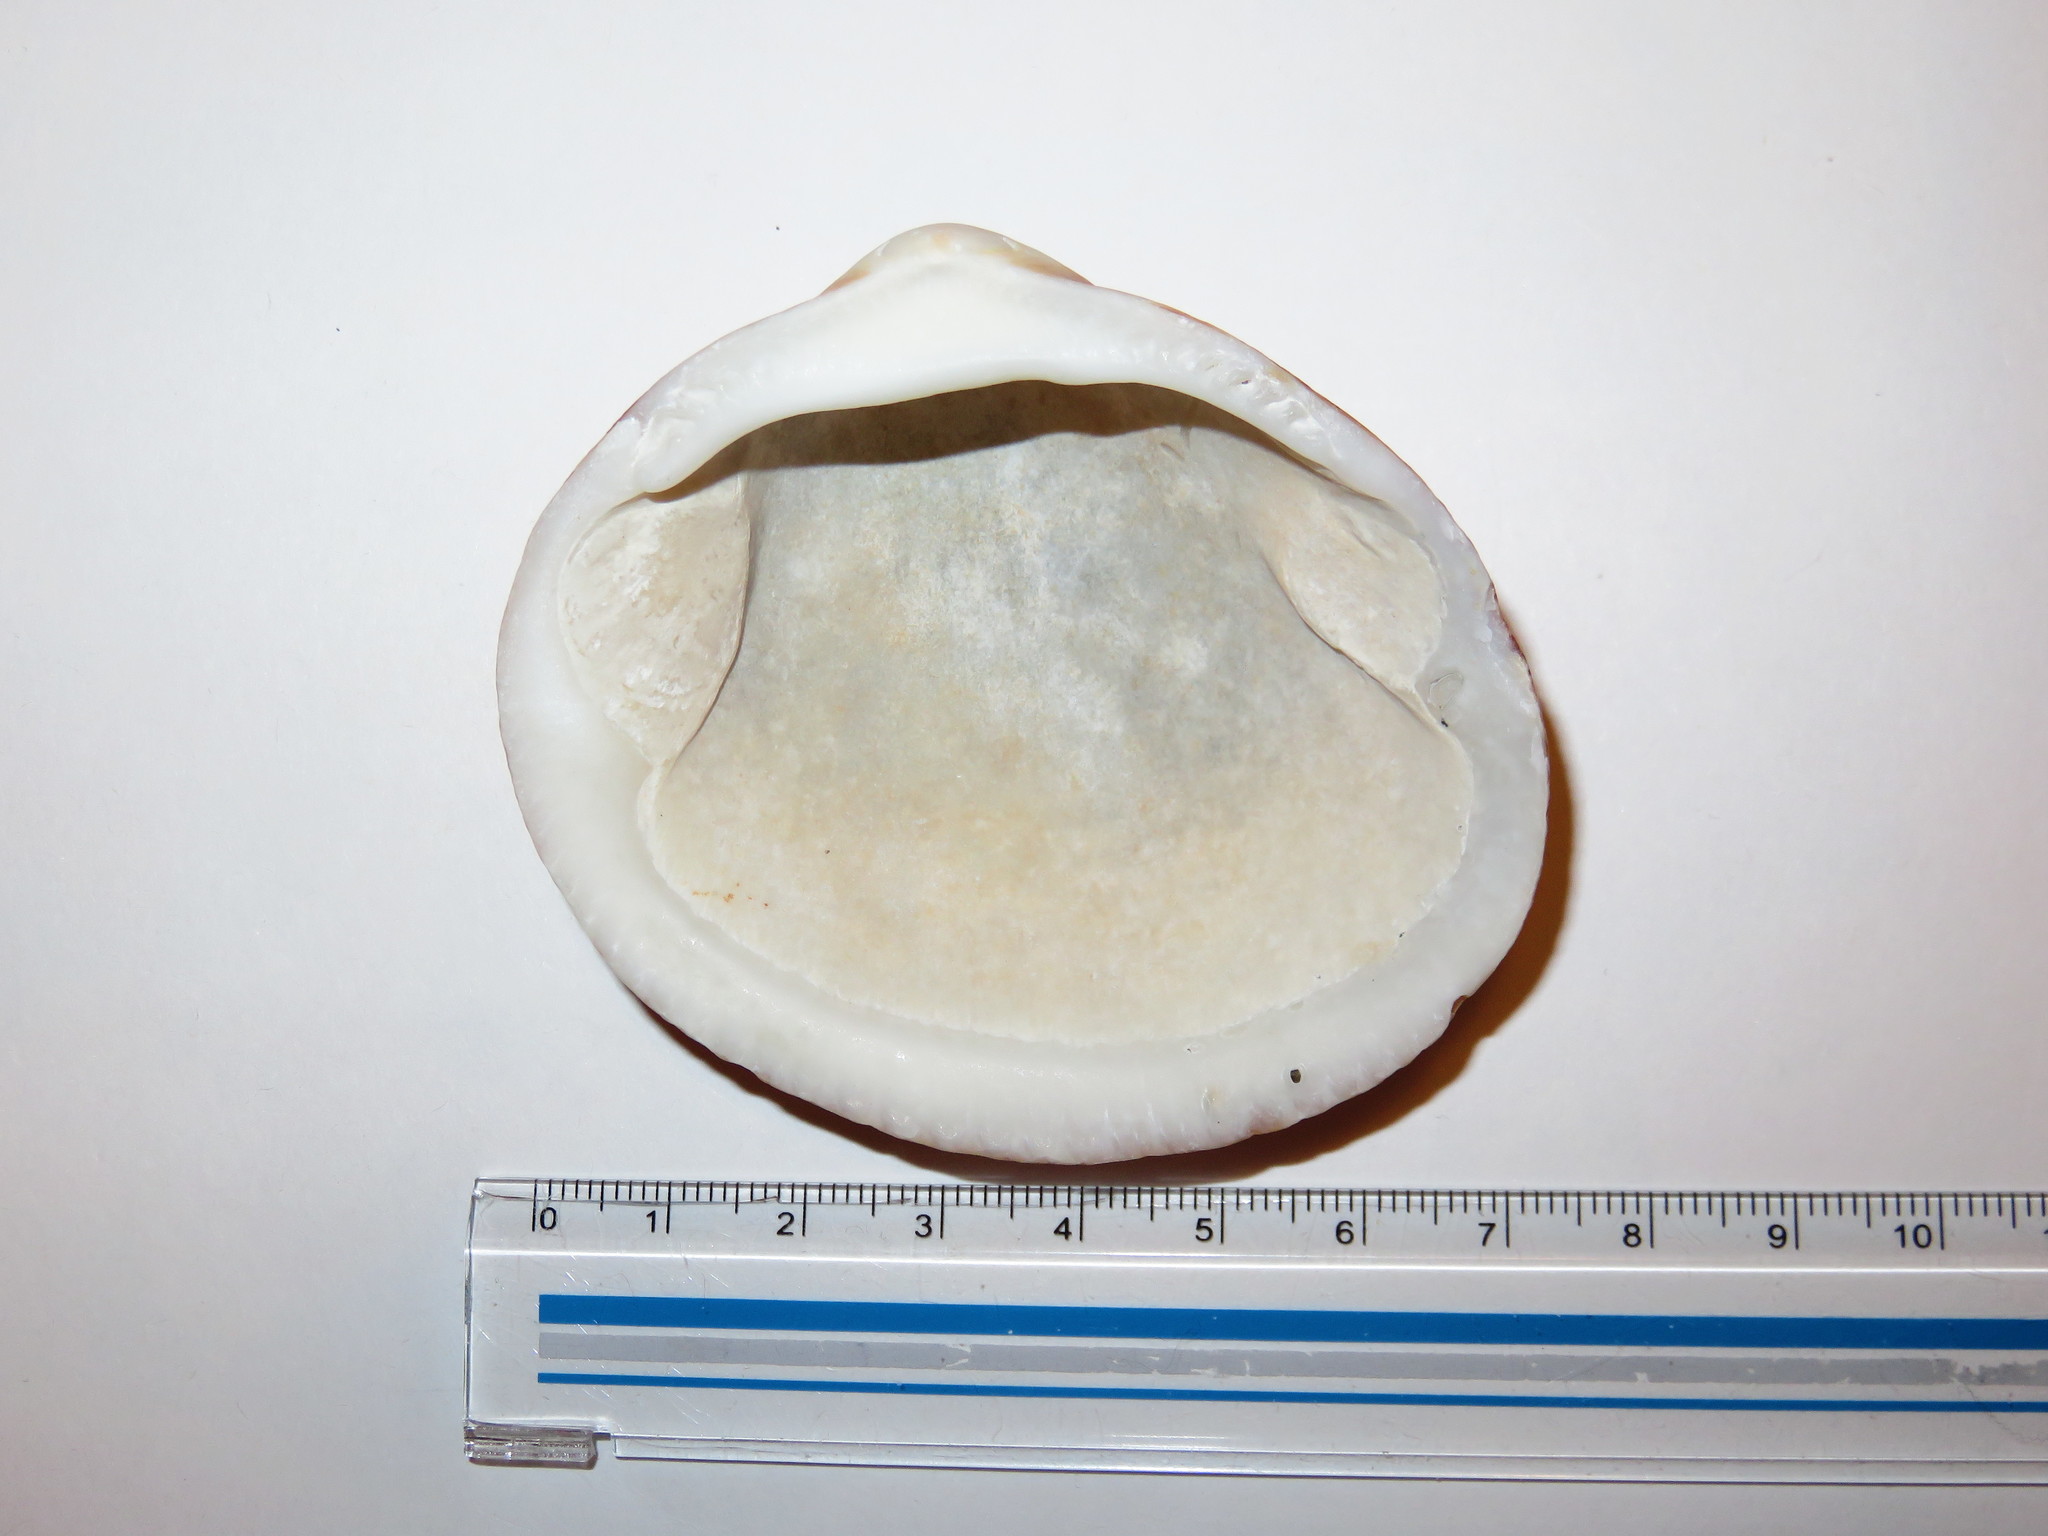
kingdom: Animalia
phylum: Mollusca
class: Bivalvia
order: Arcida
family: Glycymerididae
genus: Glycymeris
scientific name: Glycymeris albolineata
